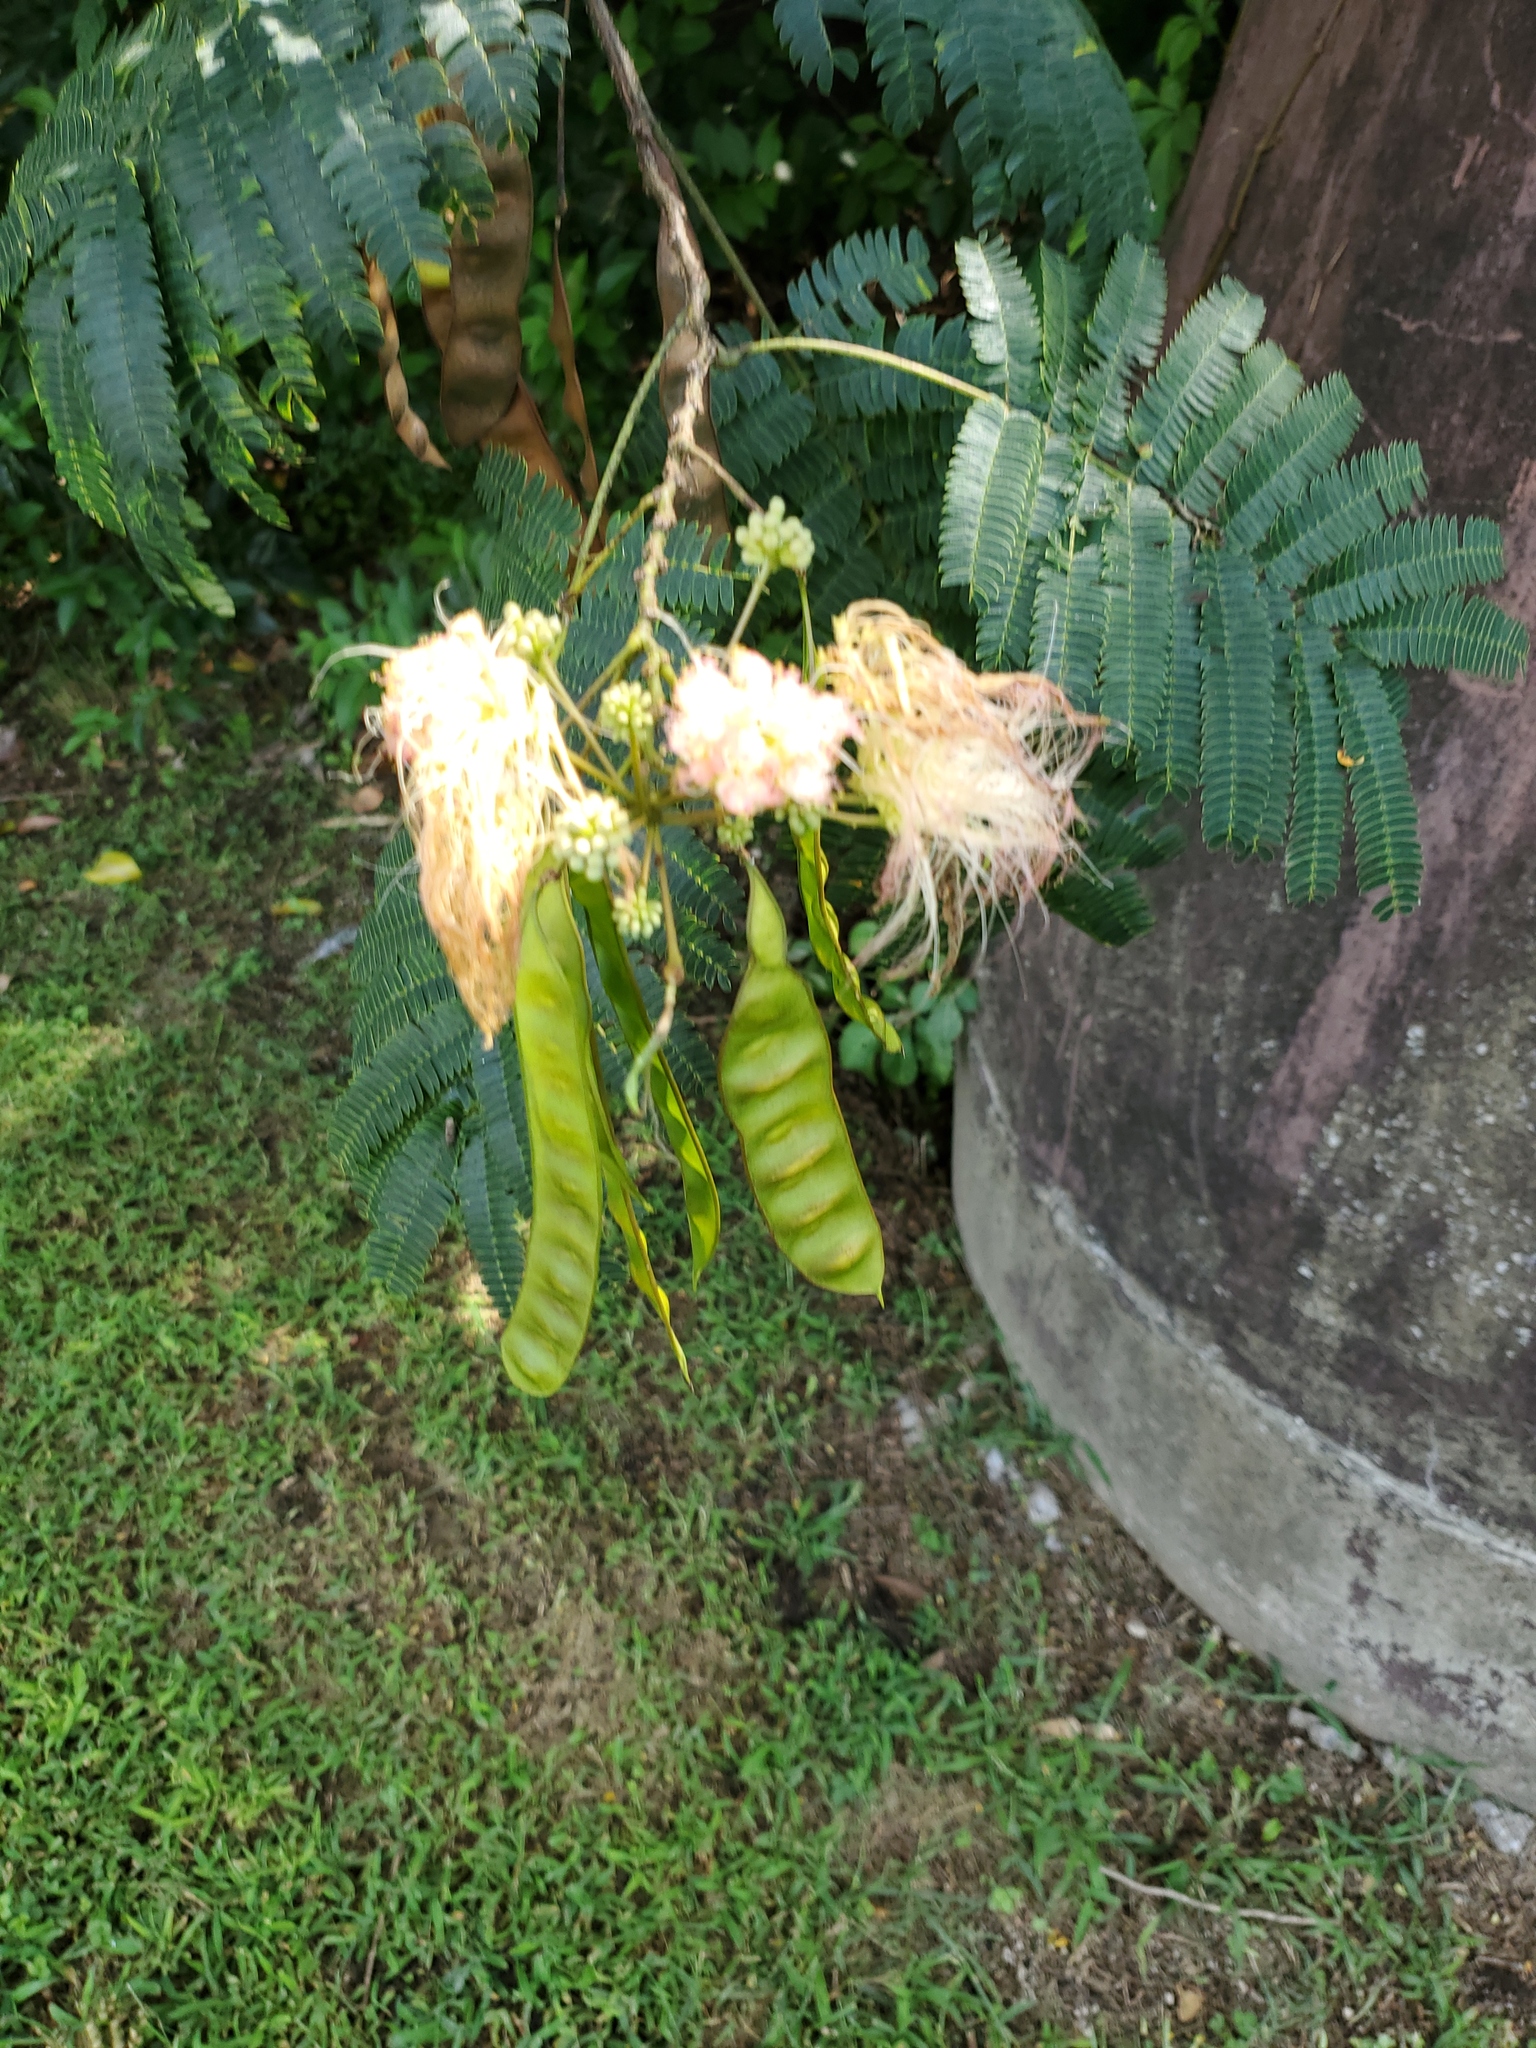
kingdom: Plantae
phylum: Tracheophyta
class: Magnoliopsida
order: Fabales
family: Fabaceae
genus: Albizia
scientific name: Albizia julibrissin
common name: Silktree
